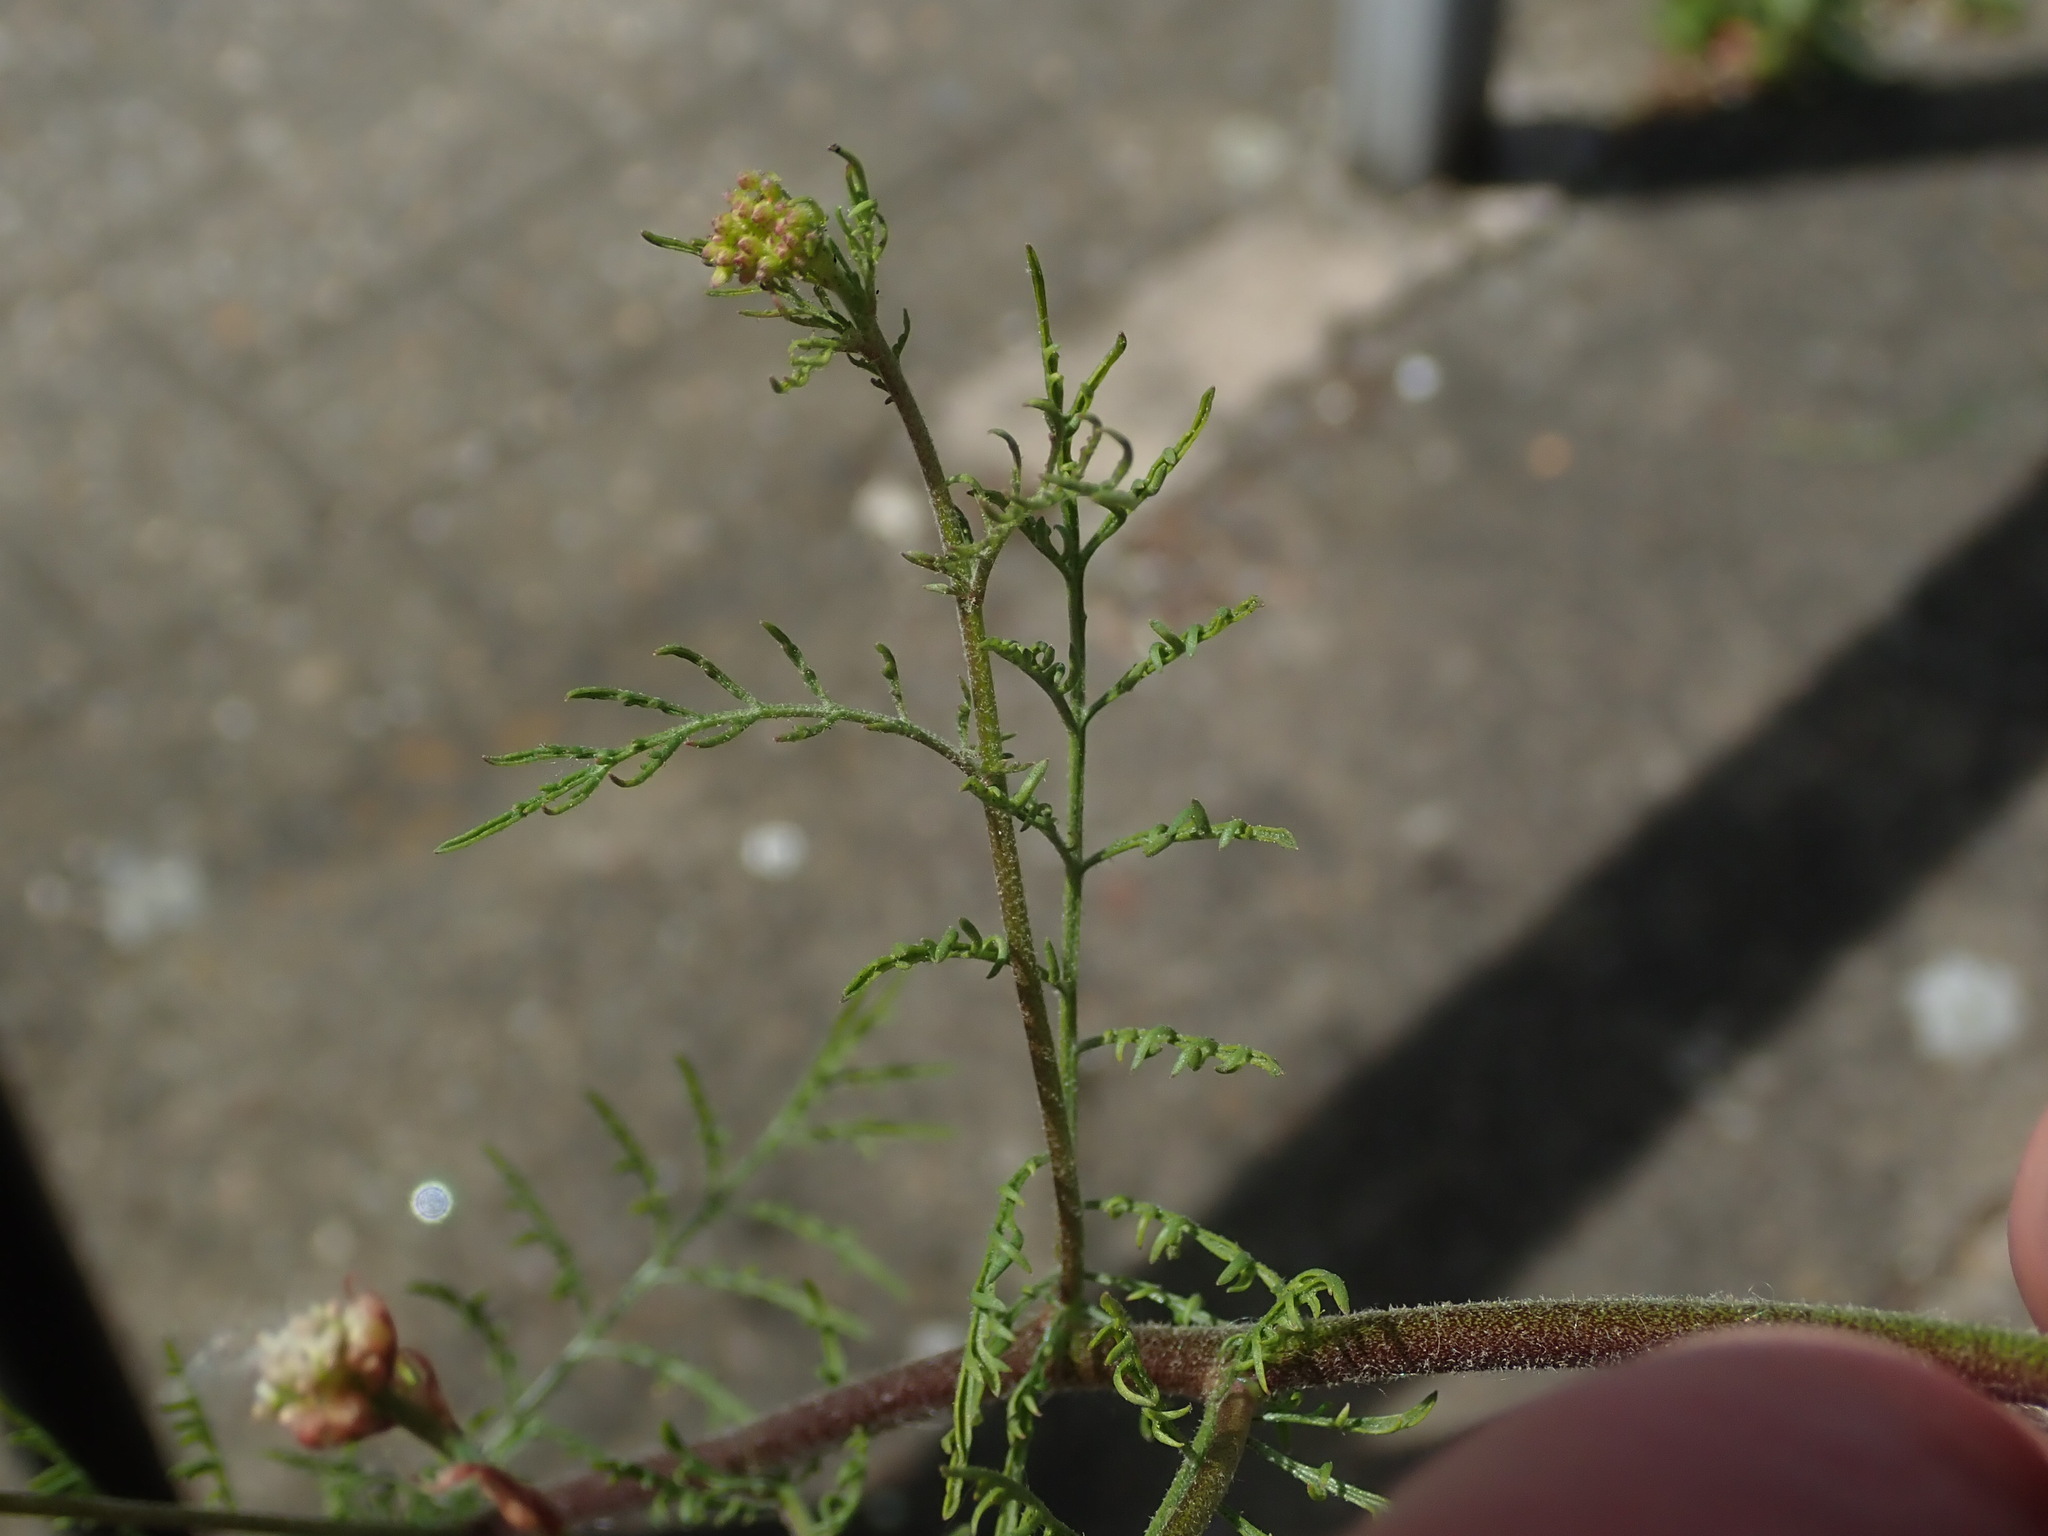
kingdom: Plantae
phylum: Tracheophyta
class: Magnoliopsida
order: Brassicales
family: Brassicaceae
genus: Descurainia
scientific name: Descurainia sophia
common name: Flixweed
